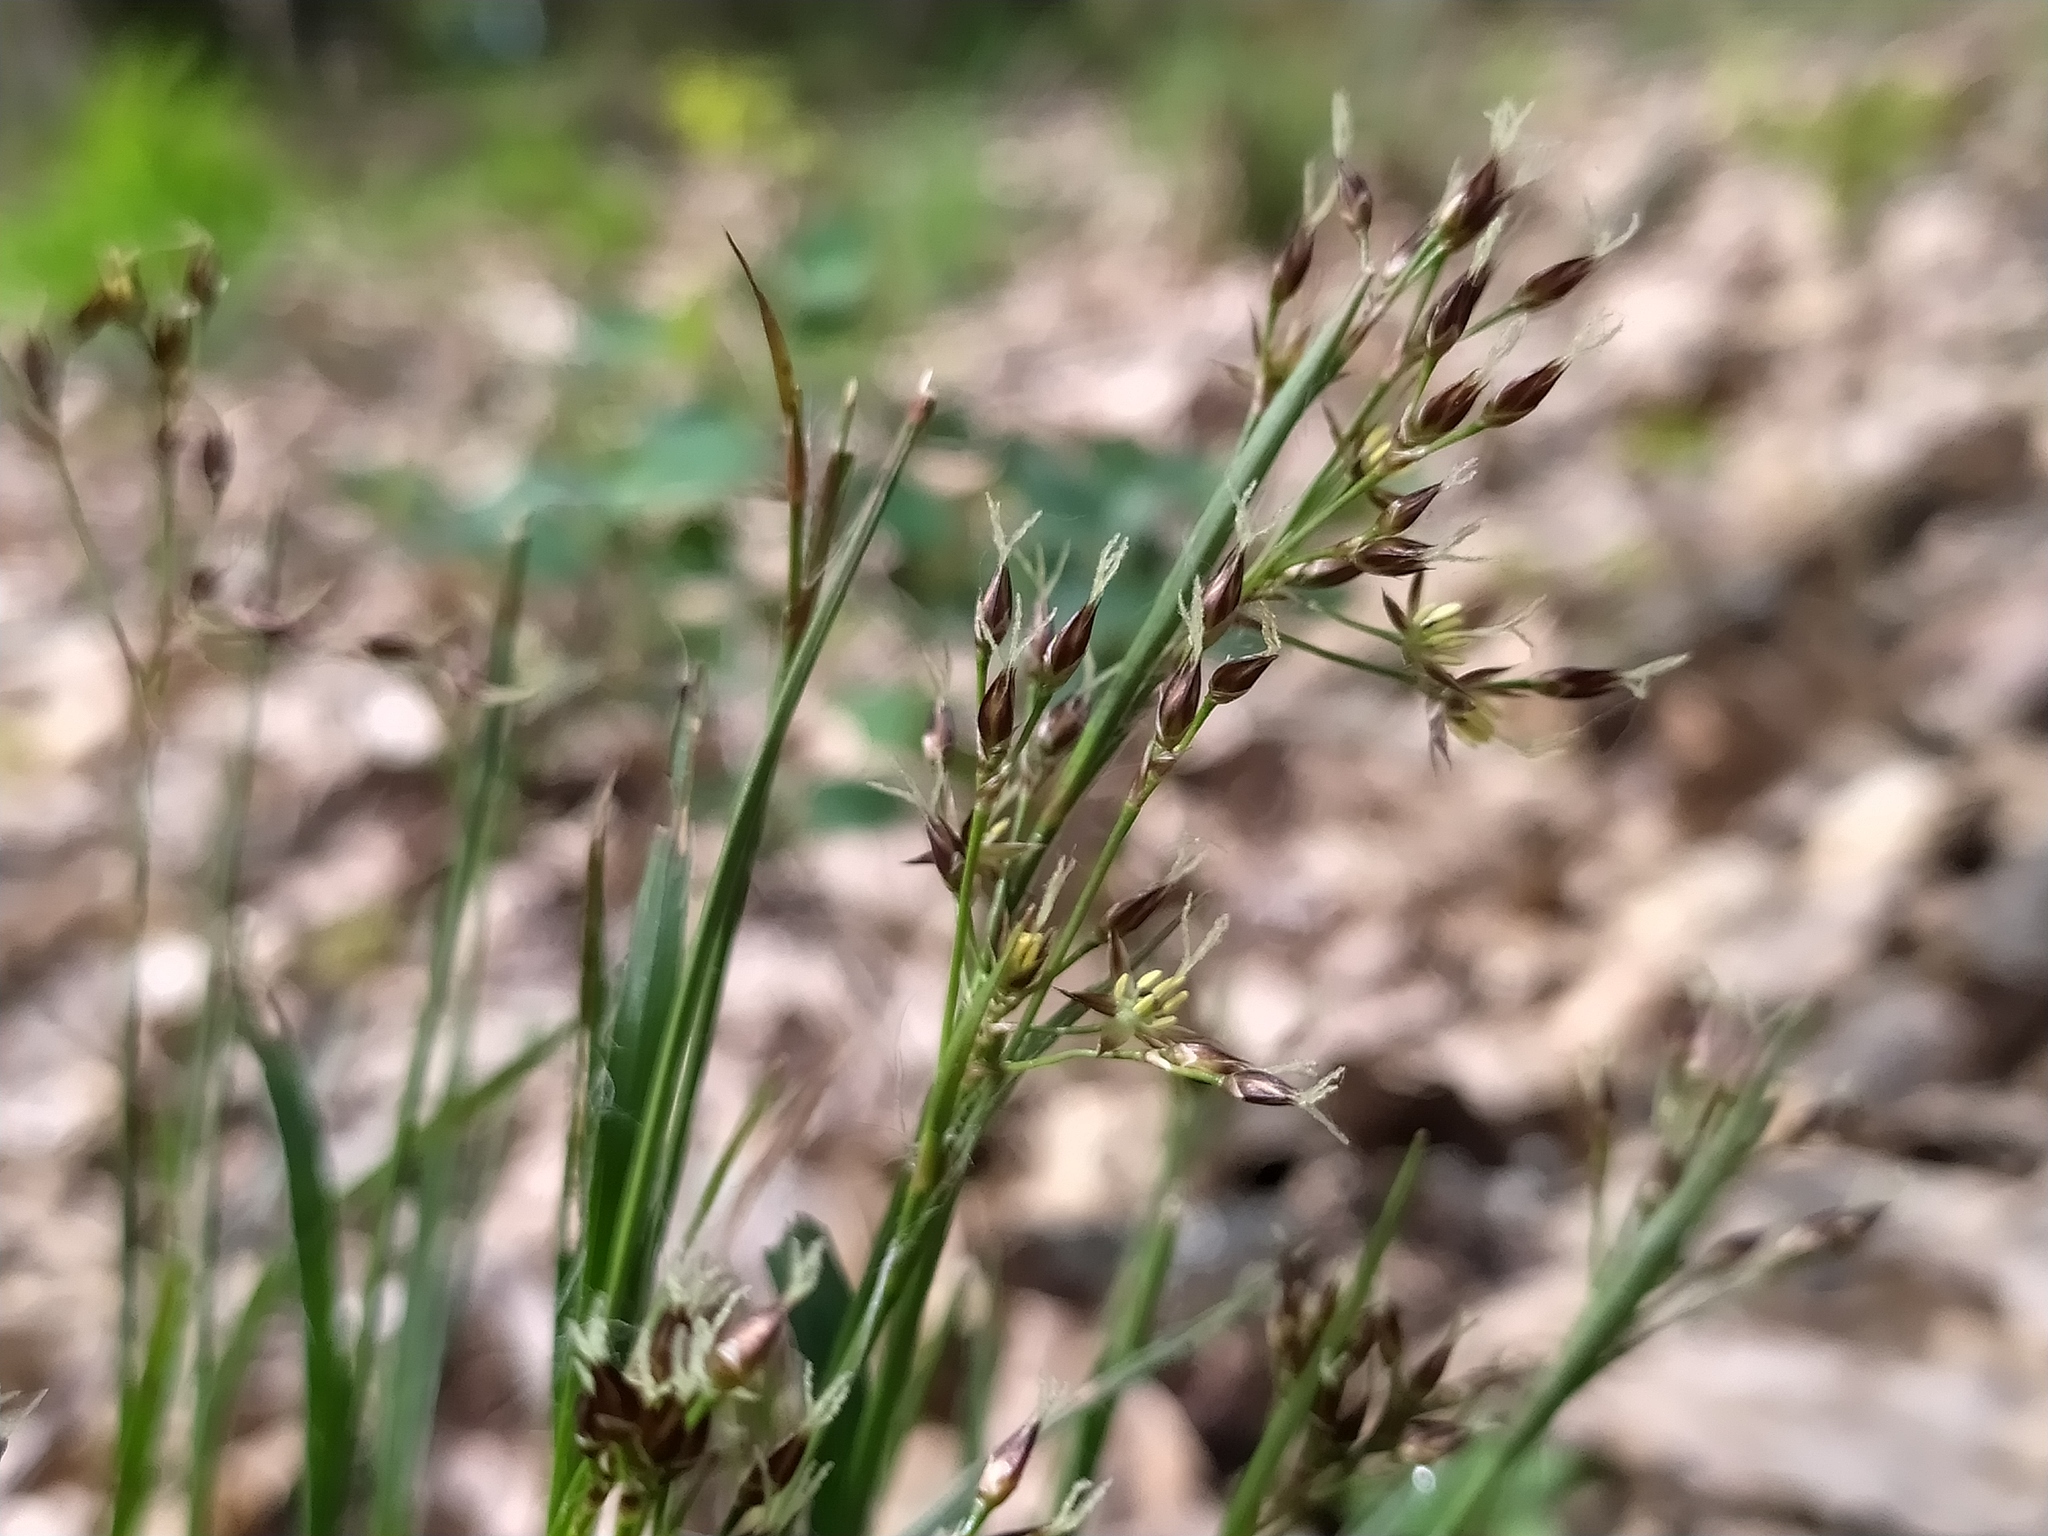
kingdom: Plantae
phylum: Tracheophyta
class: Liliopsida
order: Poales
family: Juncaceae
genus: Luzula
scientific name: Luzula forsteri
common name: Southern wood-rush
